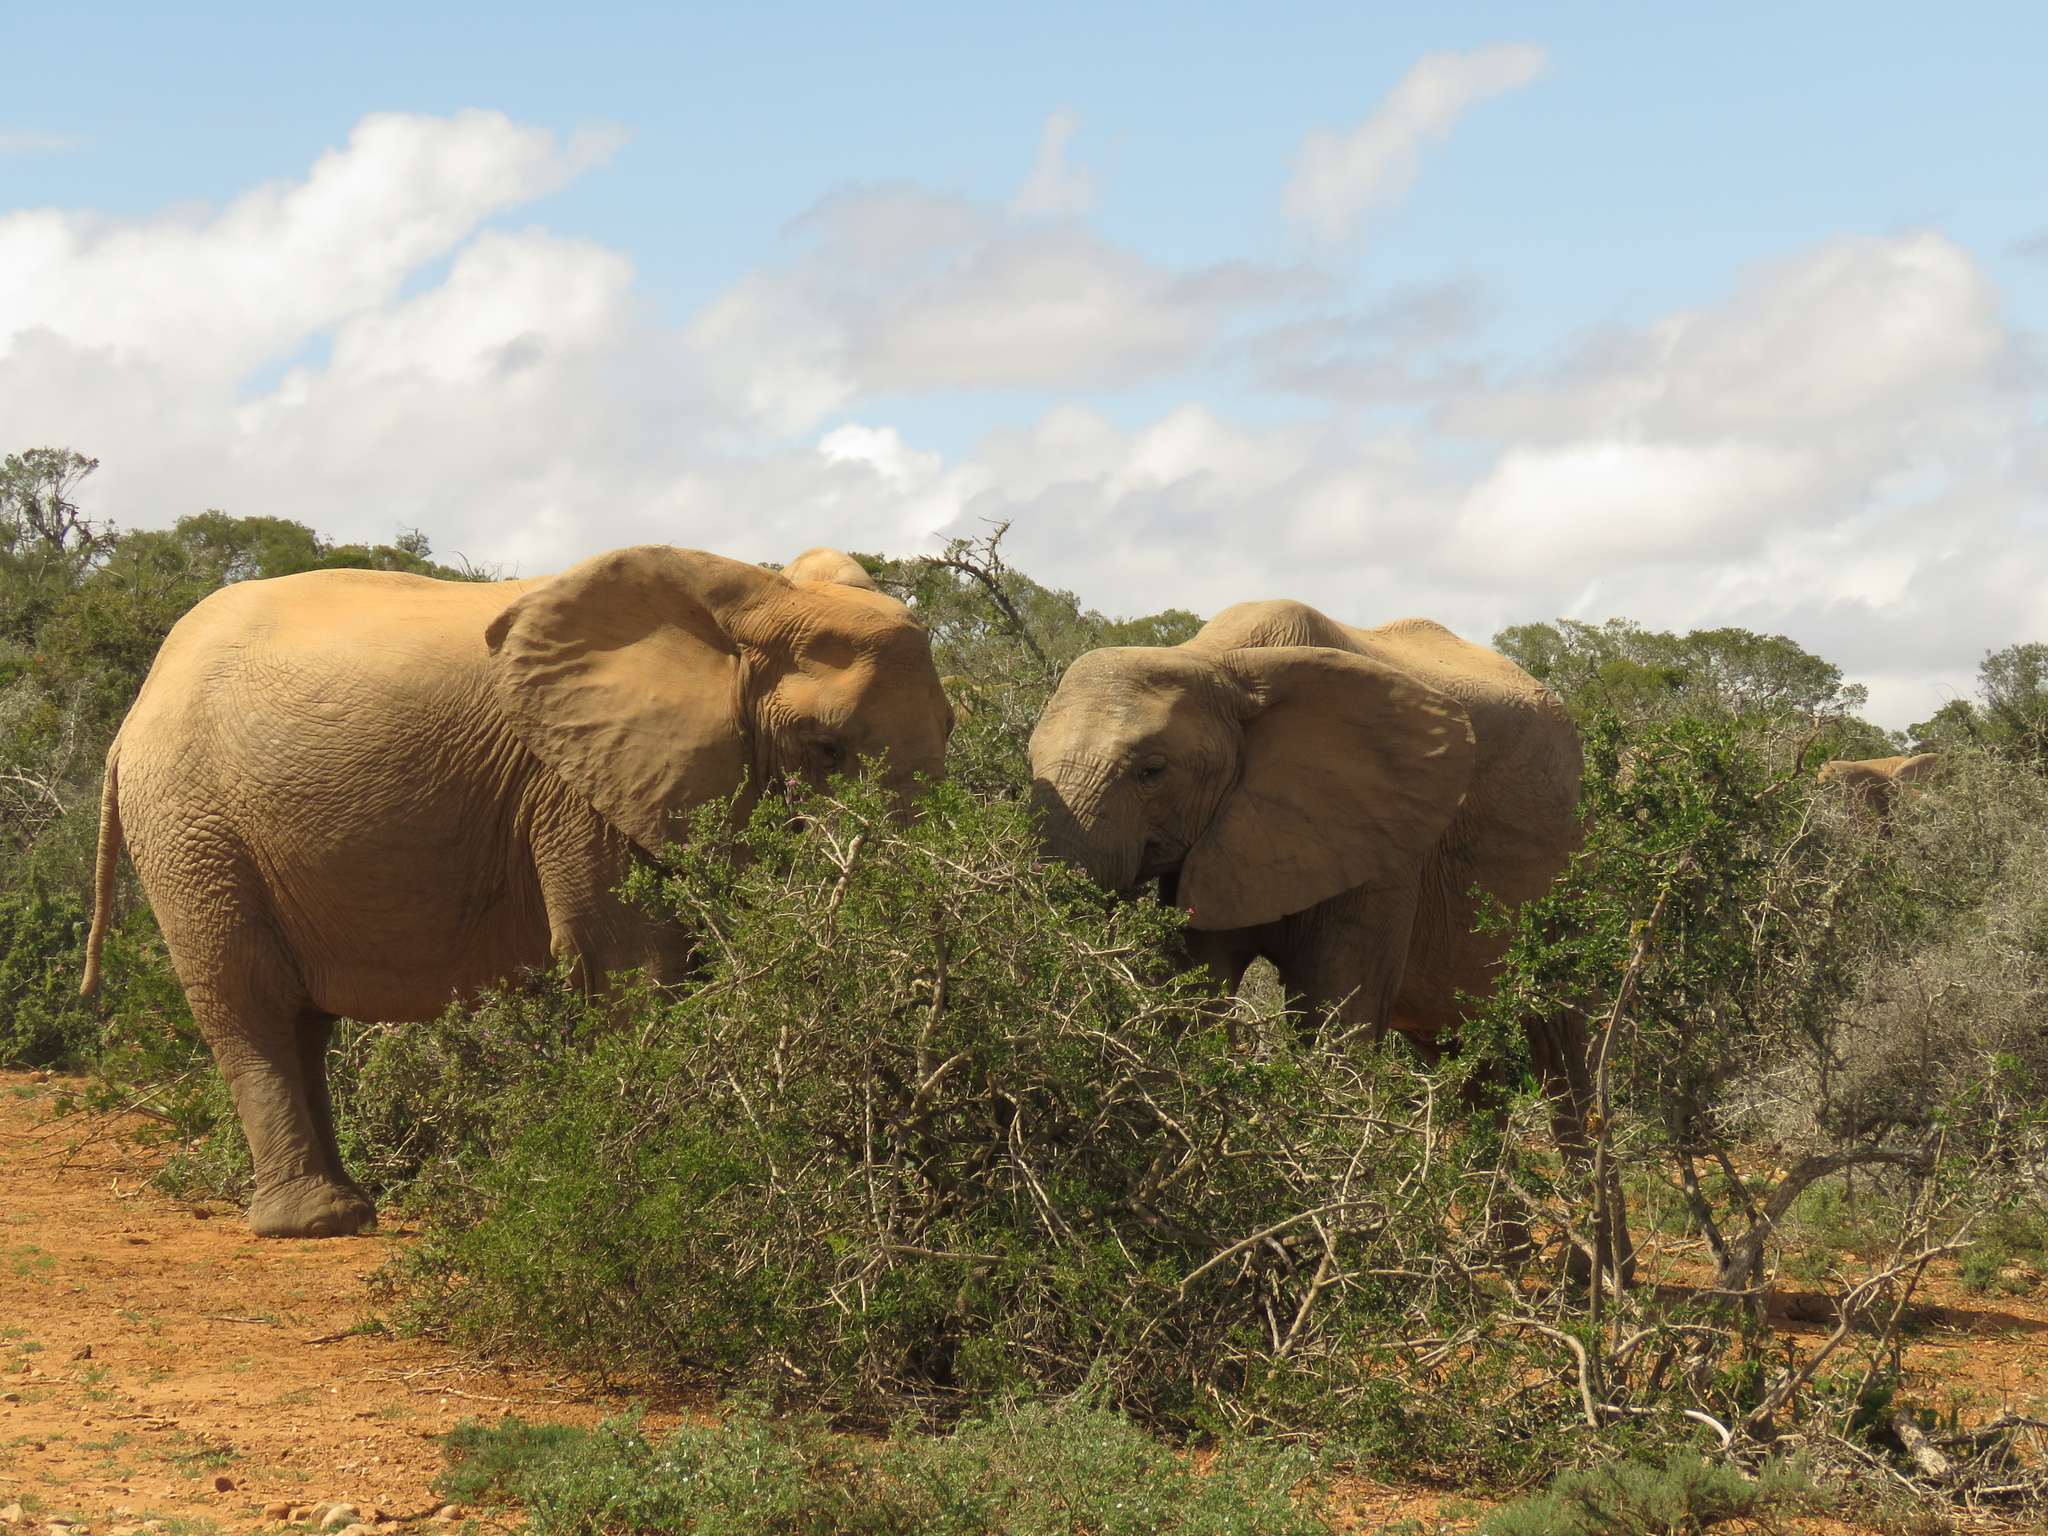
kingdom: Animalia
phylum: Chordata
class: Mammalia
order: Proboscidea
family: Elephantidae
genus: Loxodonta
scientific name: Loxodonta africana
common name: African elephant
